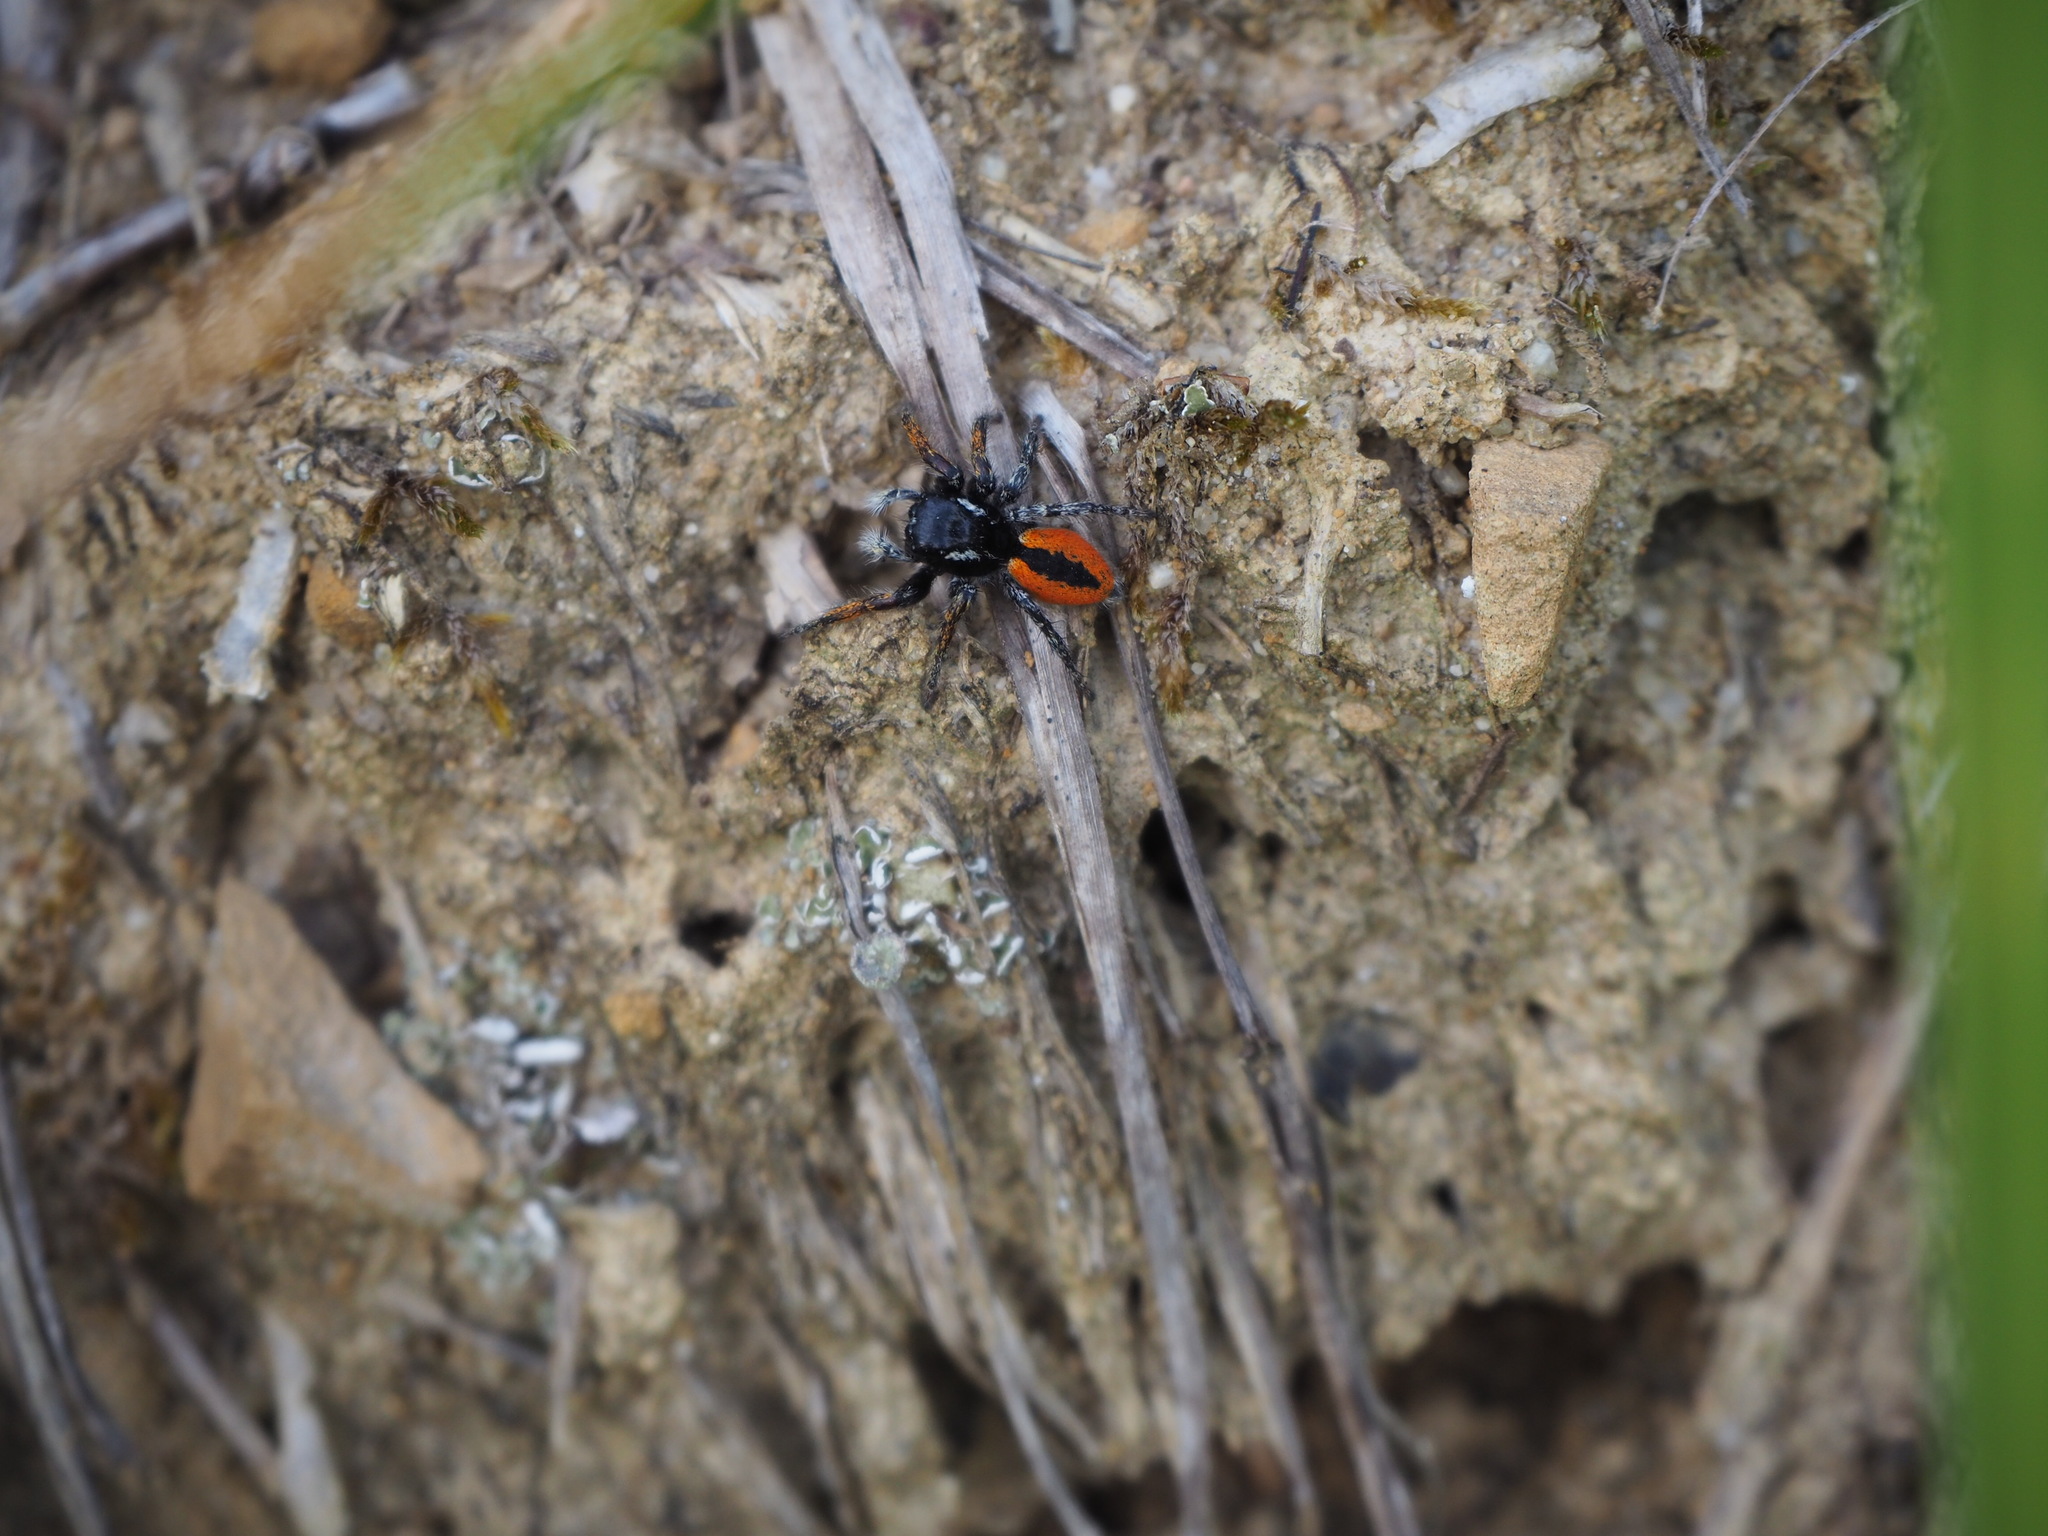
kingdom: Animalia
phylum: Arthropoda
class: Arachnida
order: Araneae
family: Salticidae
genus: Philaeus
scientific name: Philaeus chrysops
